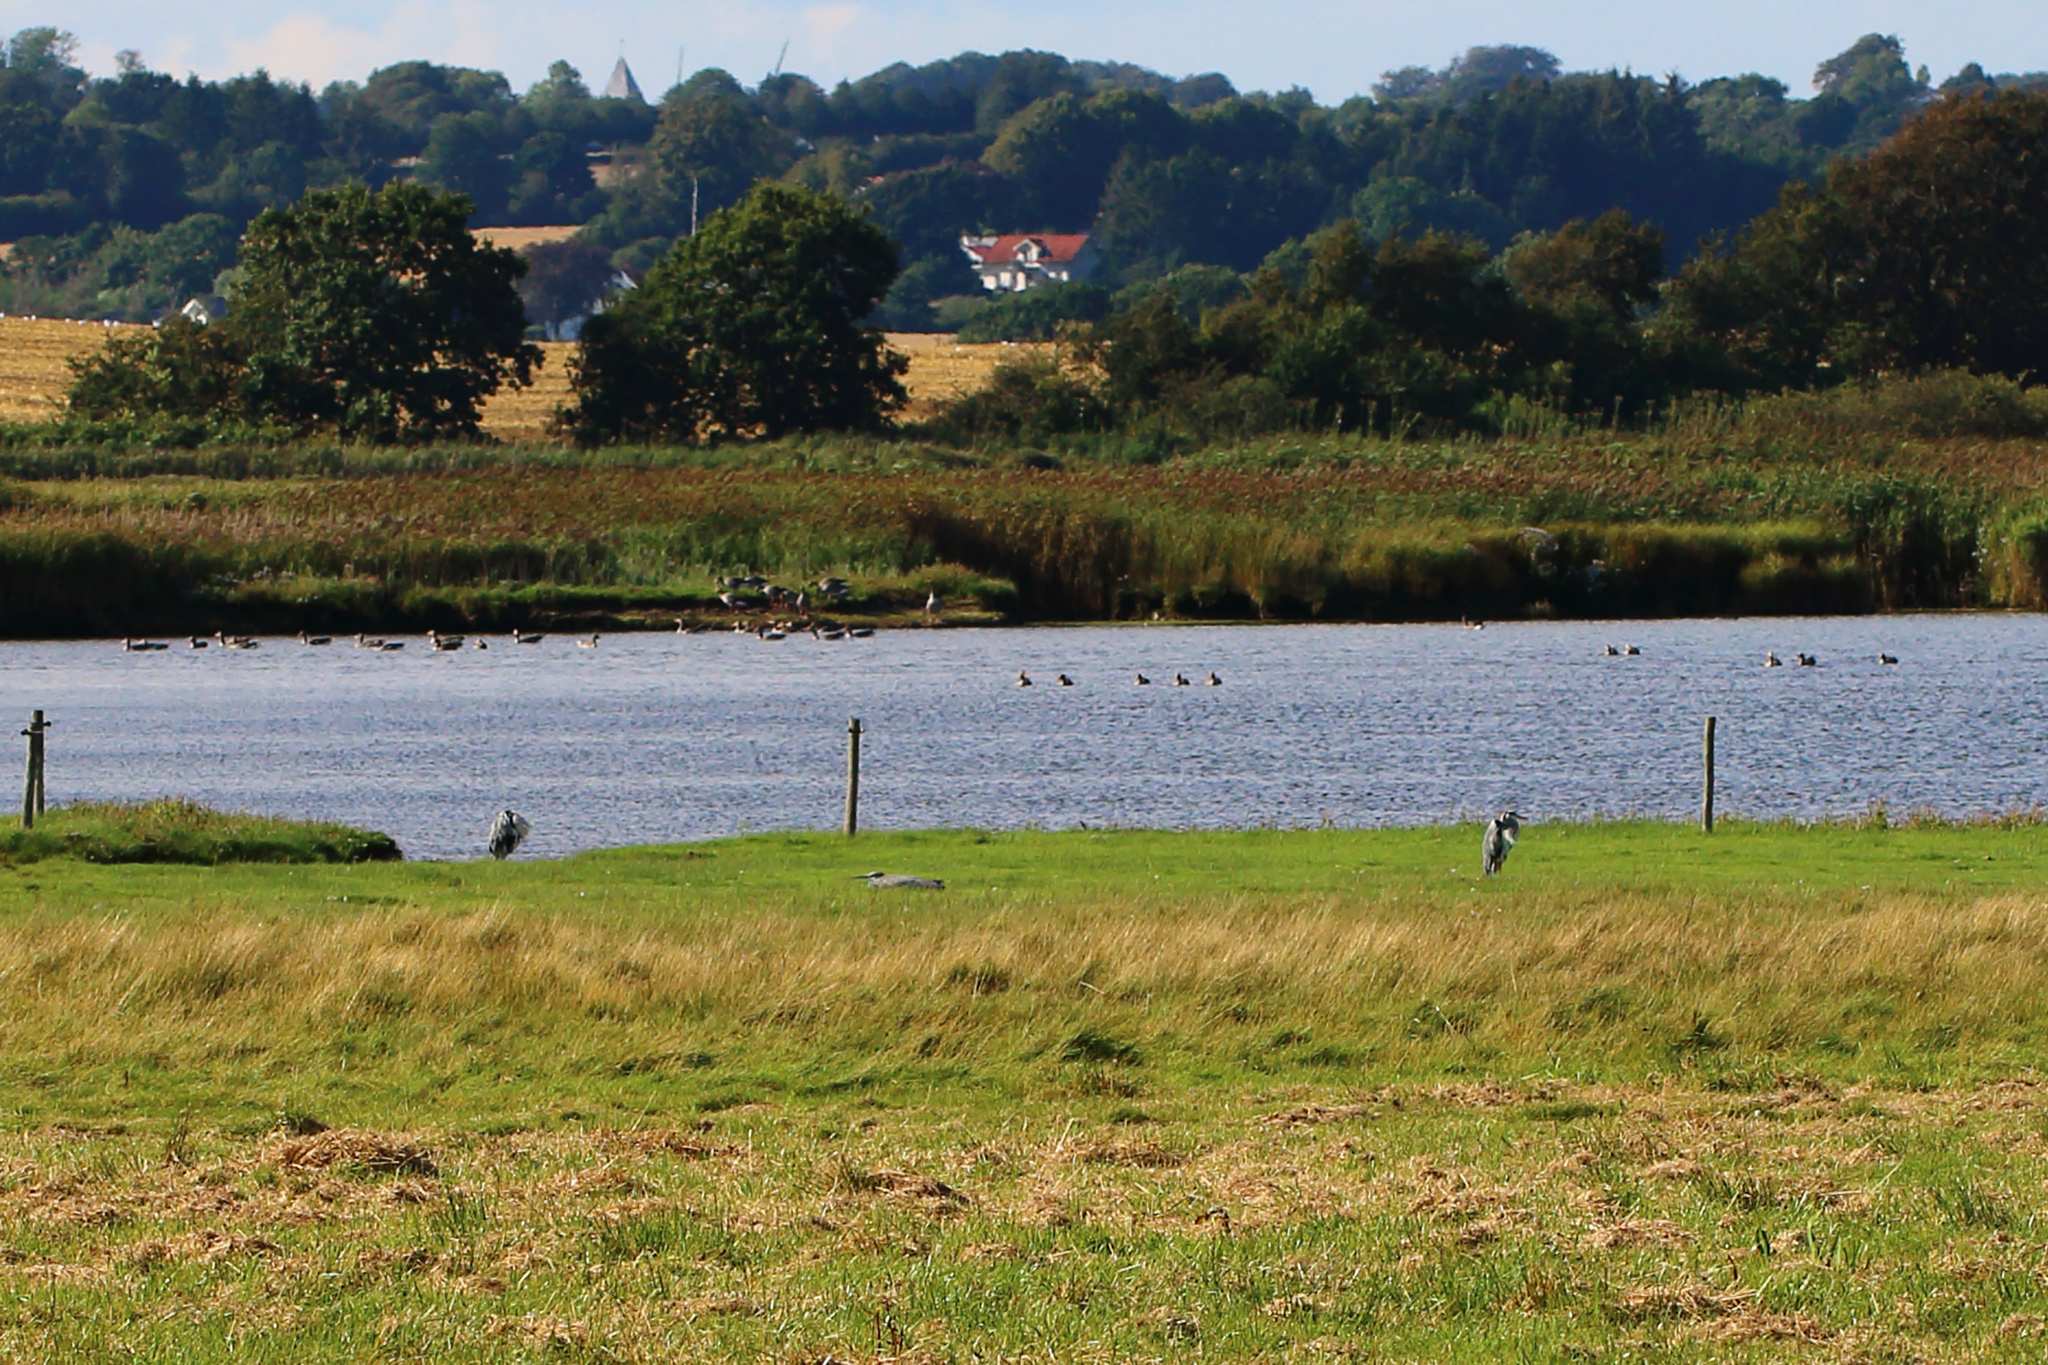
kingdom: Animalia
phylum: Chordata
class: Aves
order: Pelecaniformes
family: Ardeidae
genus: Ardea
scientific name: Ardea cinerea
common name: Grey heron
